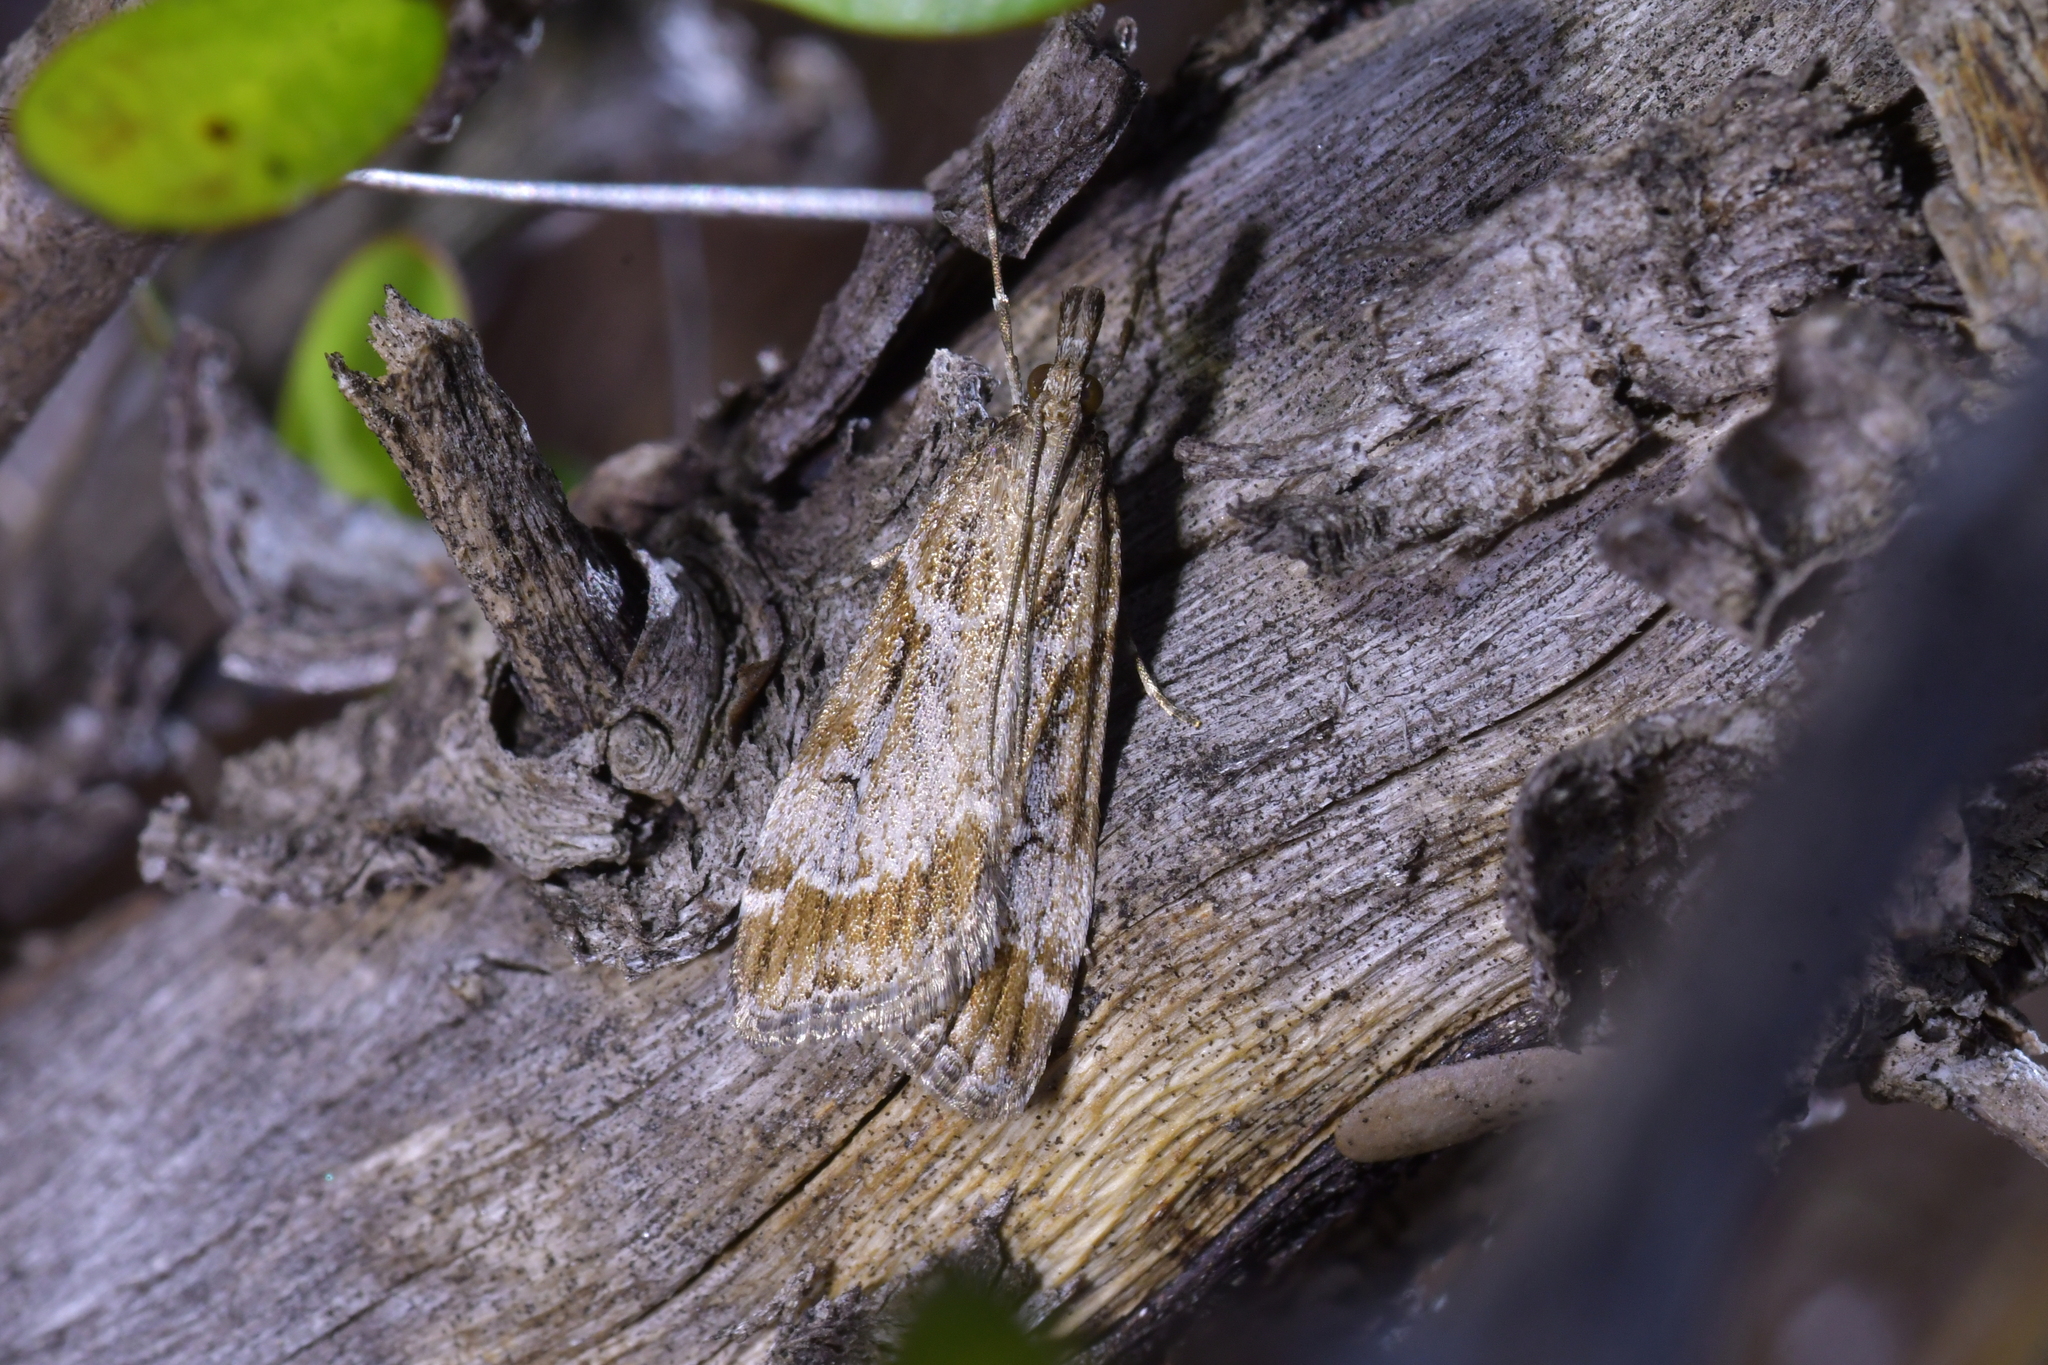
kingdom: Animalia
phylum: Arthropoda
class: Insecta
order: Lepidoptera
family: Crambidae
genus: Eudonia
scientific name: Eudonia chalara
